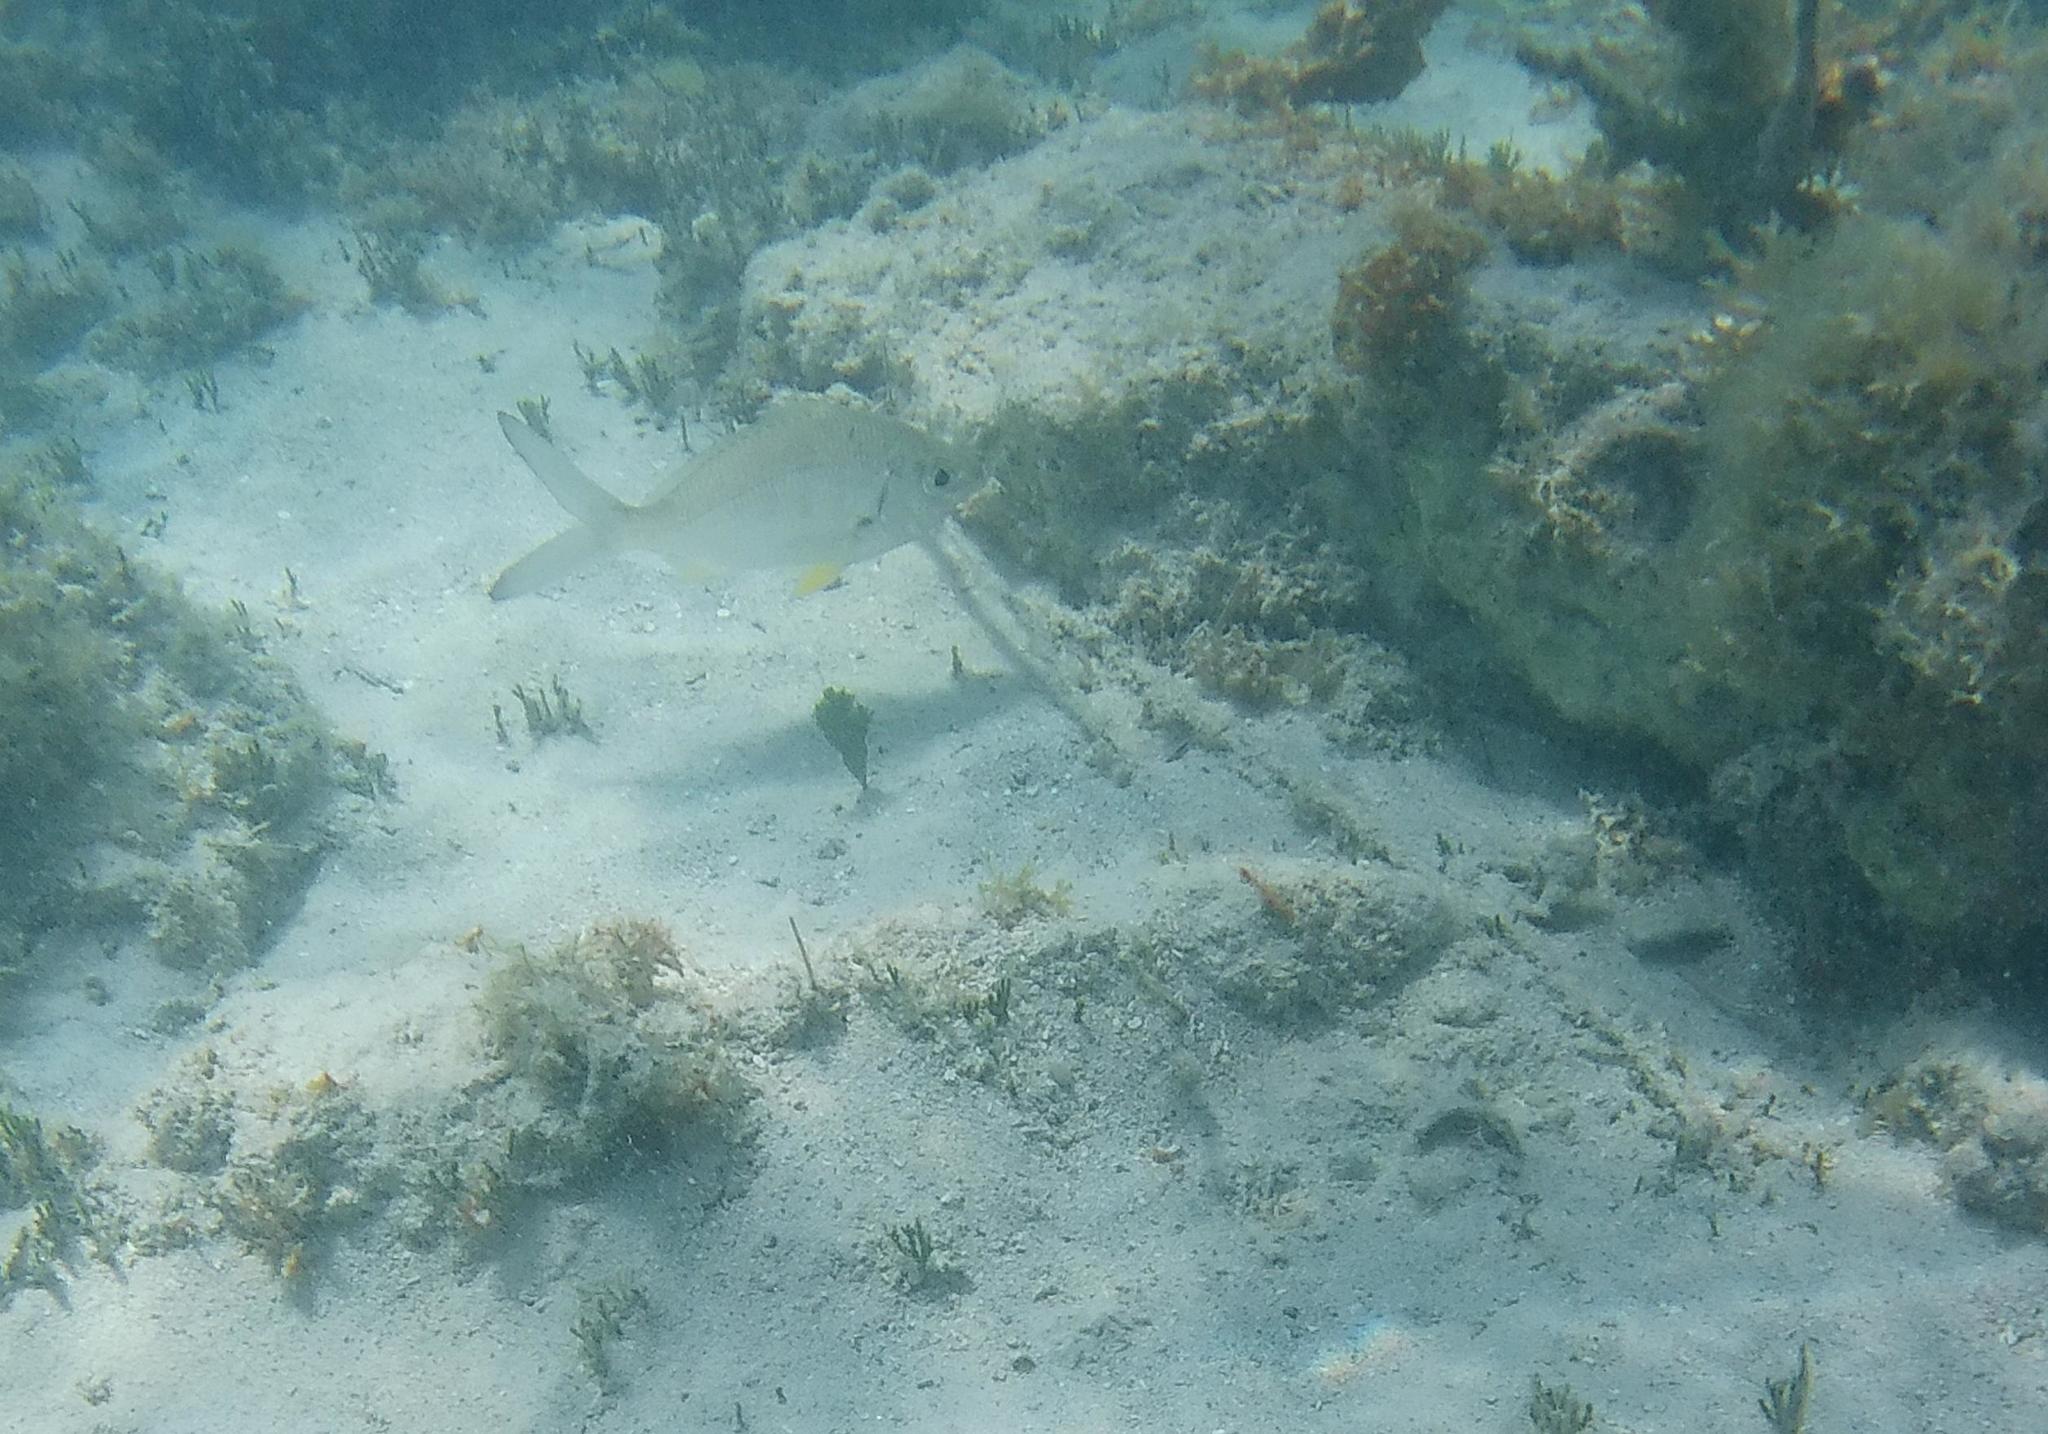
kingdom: Animalia
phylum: Chordata
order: Perciformes
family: Gerreidae
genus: Gerres
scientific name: Gerres cinereus
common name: Hedow
